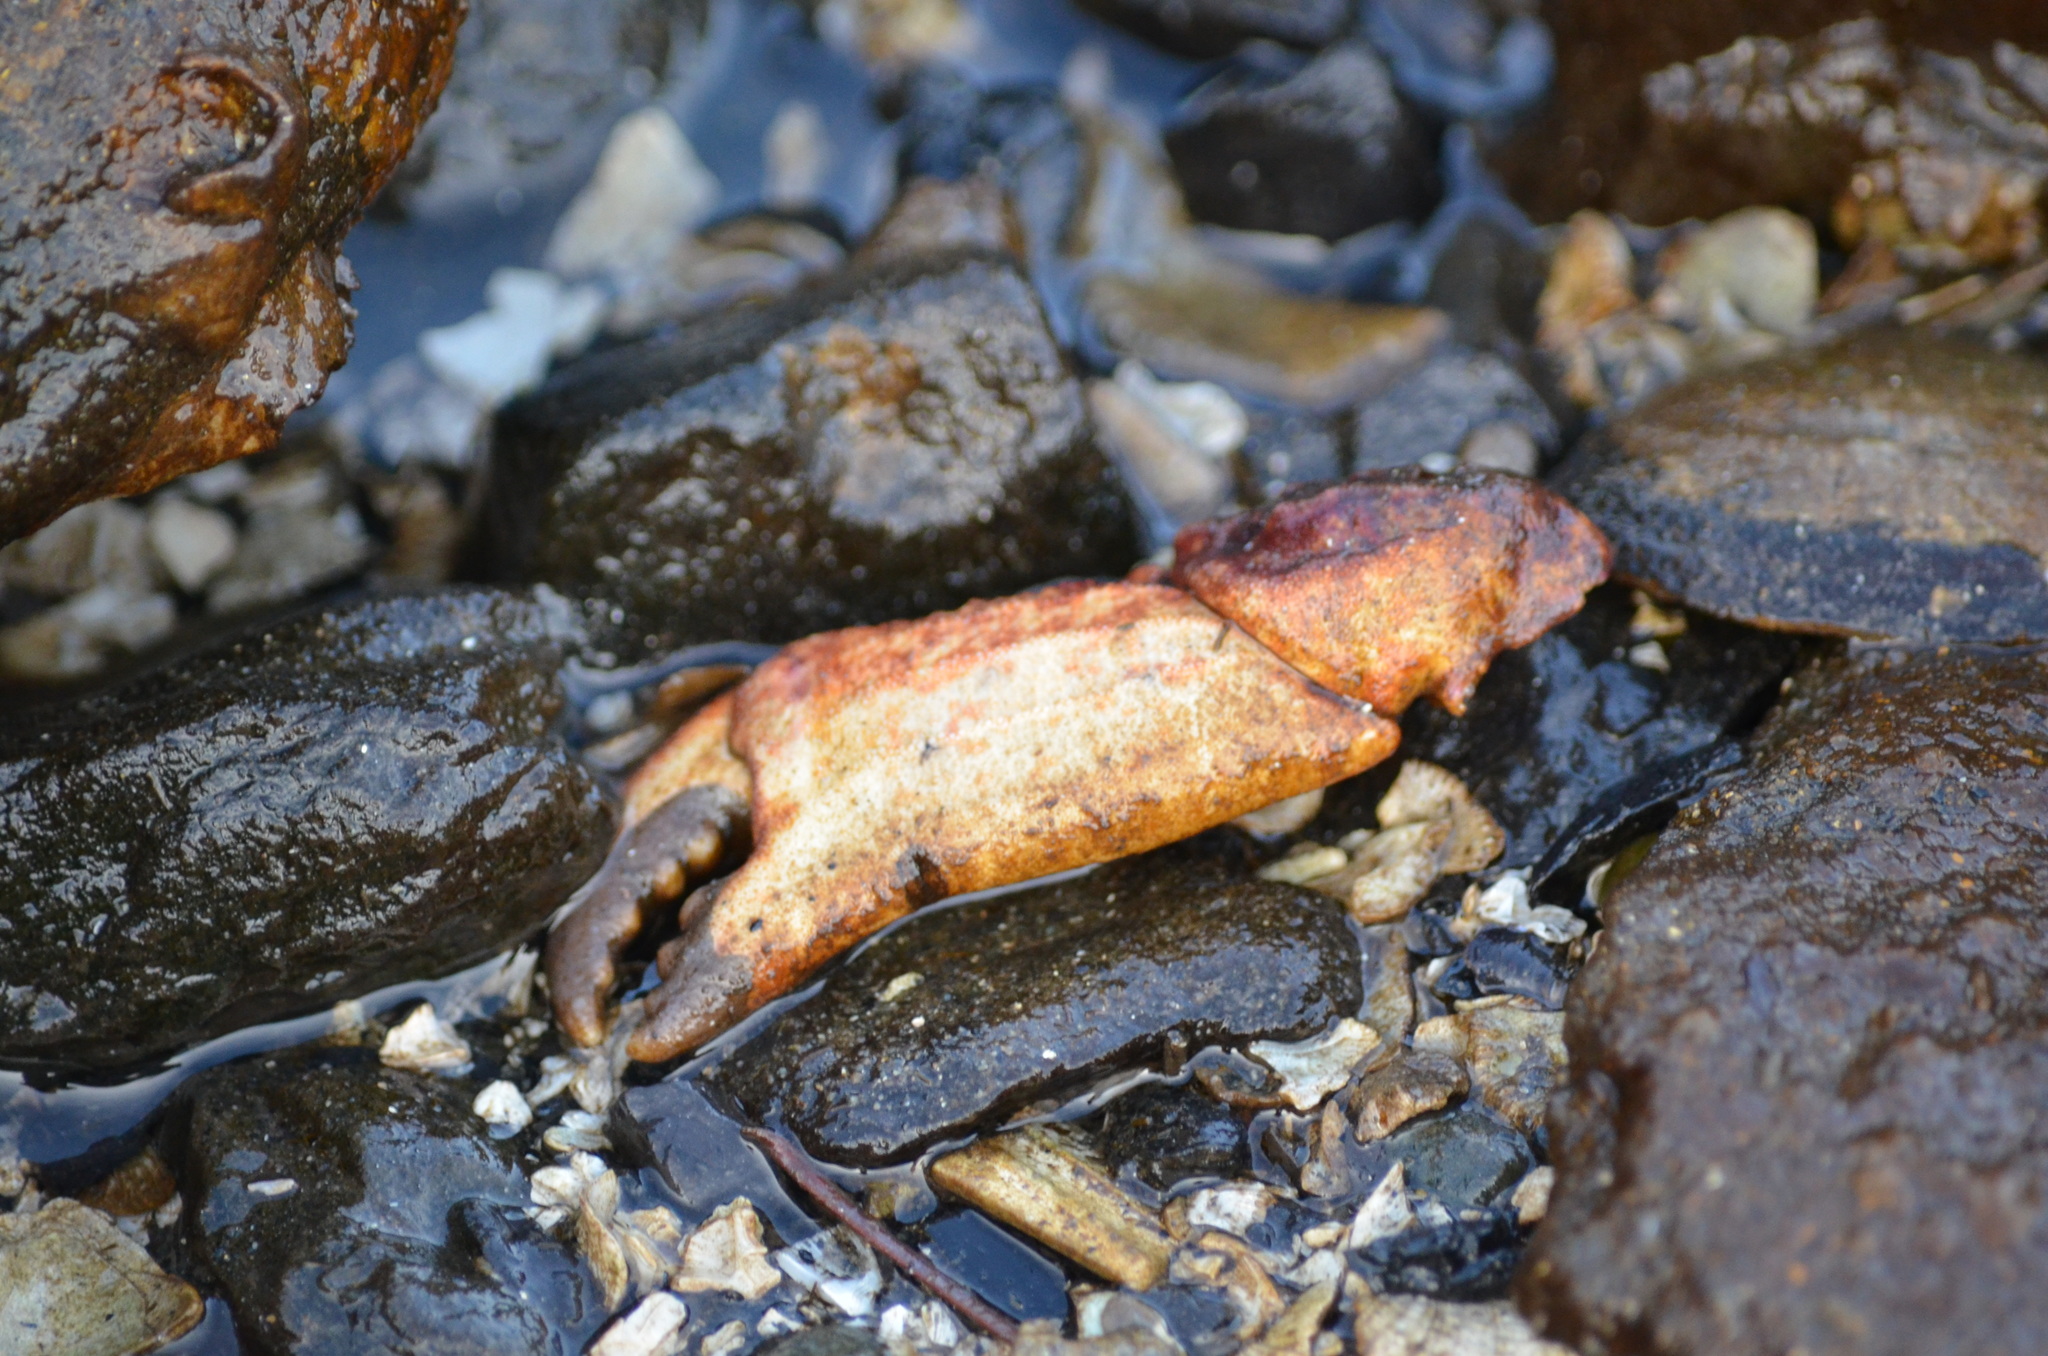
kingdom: Animalia
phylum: Arthropoda
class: Malacostraca
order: Decapoda
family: Cancridae
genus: Cancer
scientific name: Cancer productus
